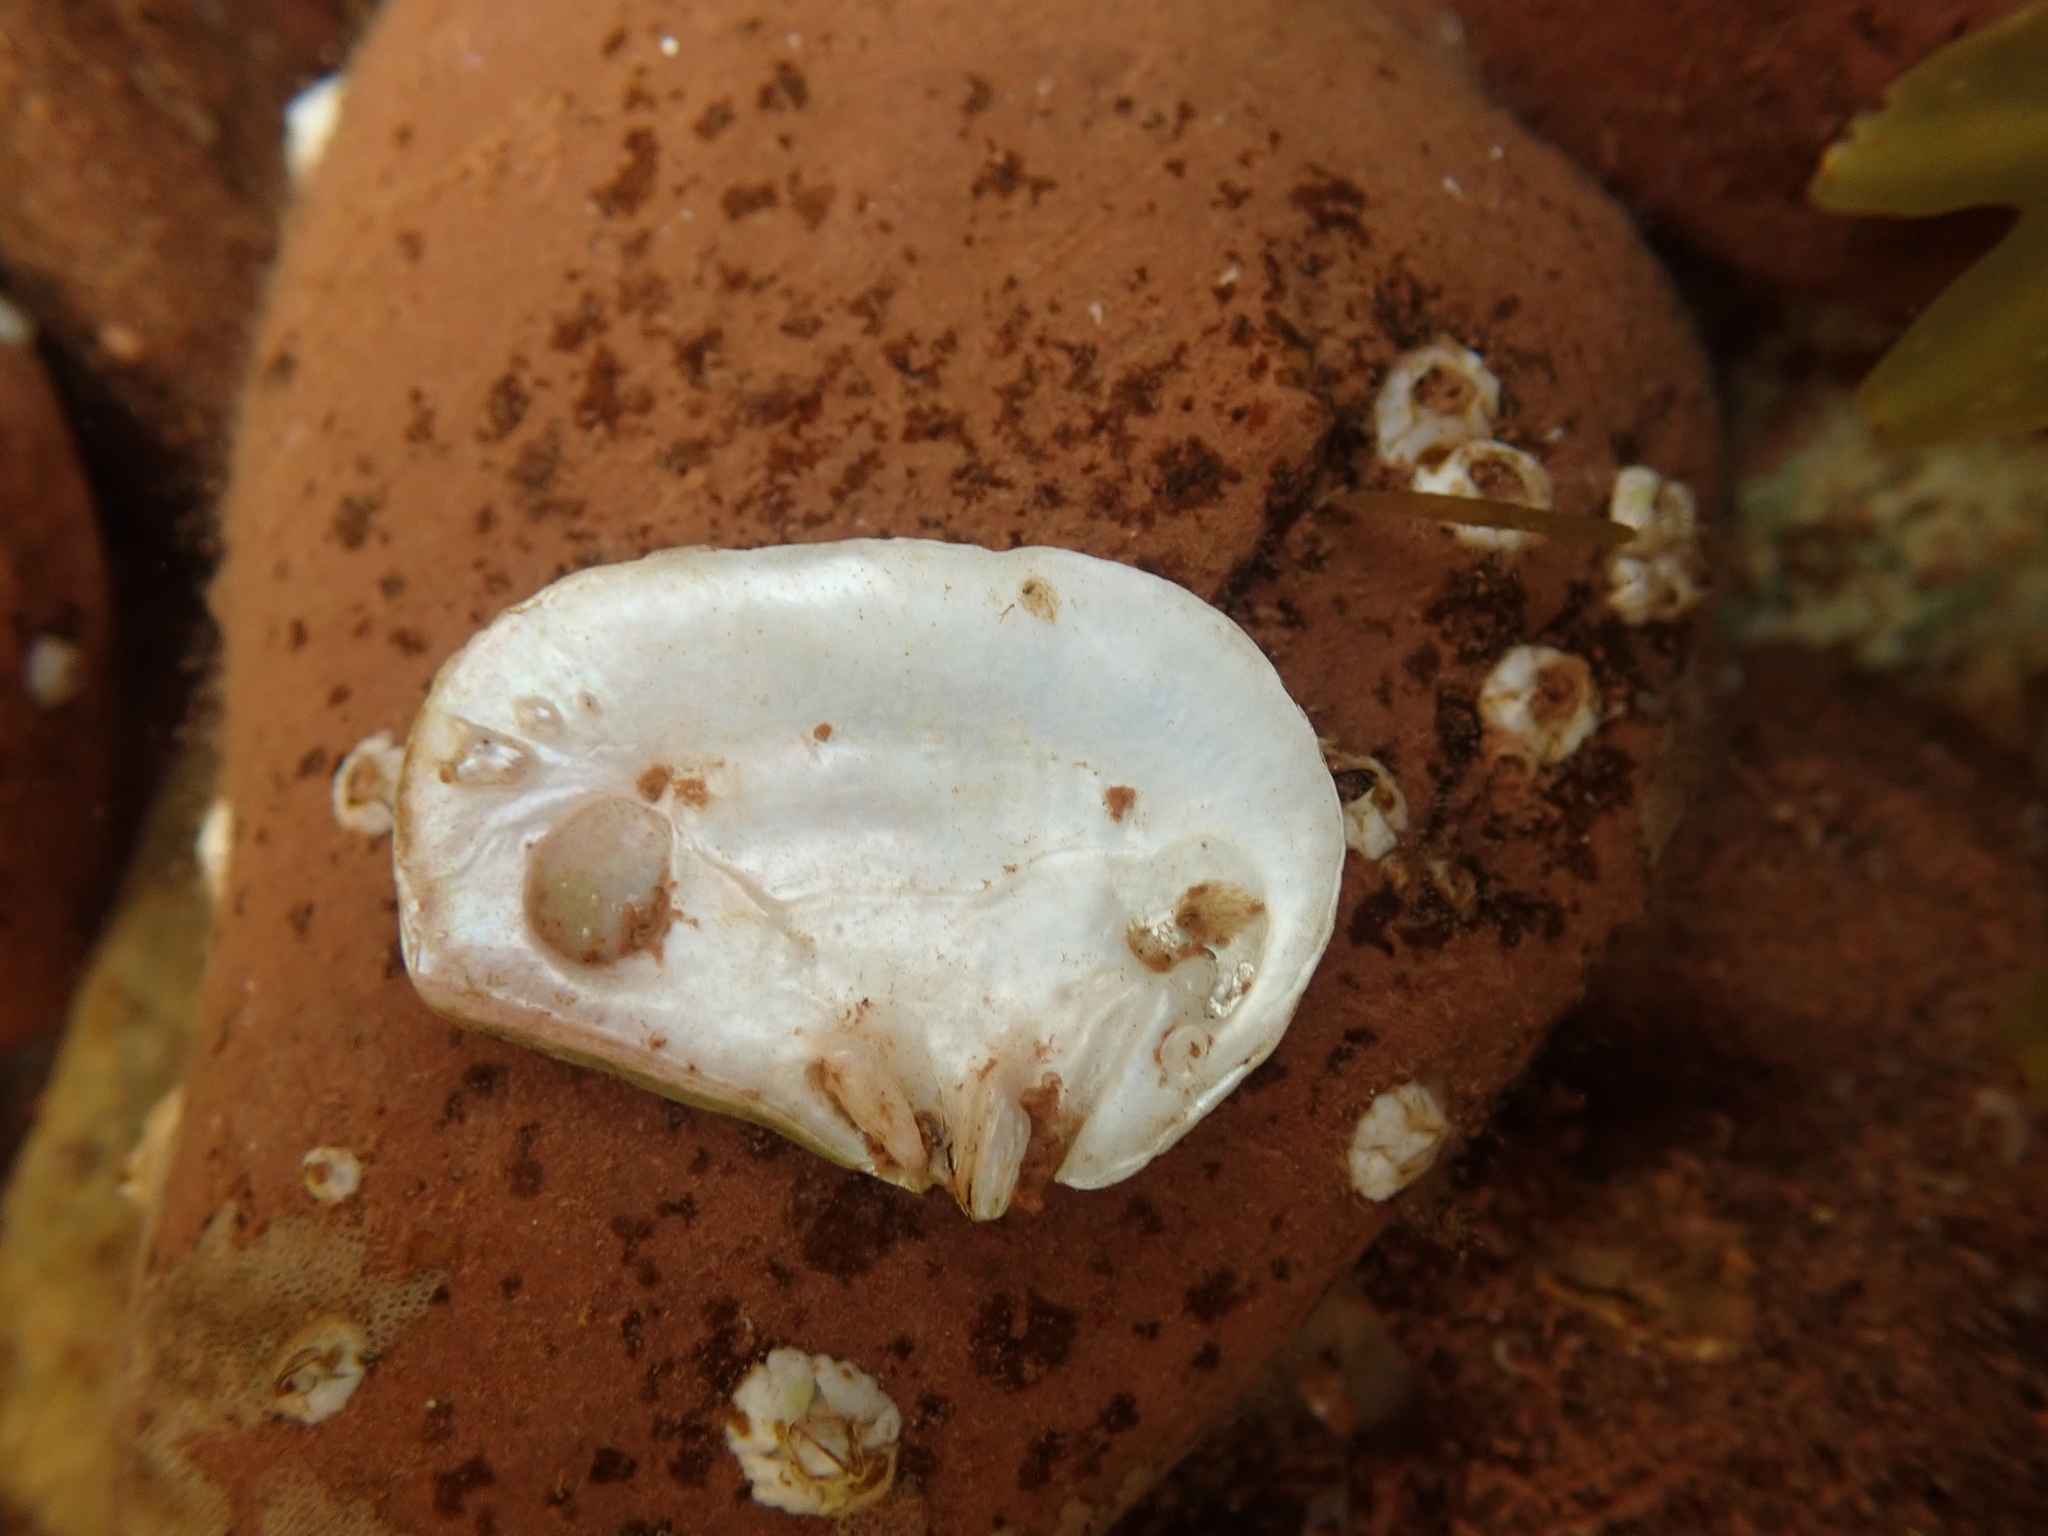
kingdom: Animalia
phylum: Mollusca
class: Bivalvia
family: Pandoridae
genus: Pandora
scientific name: Pandora gouldiana
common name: Rounded pandora
